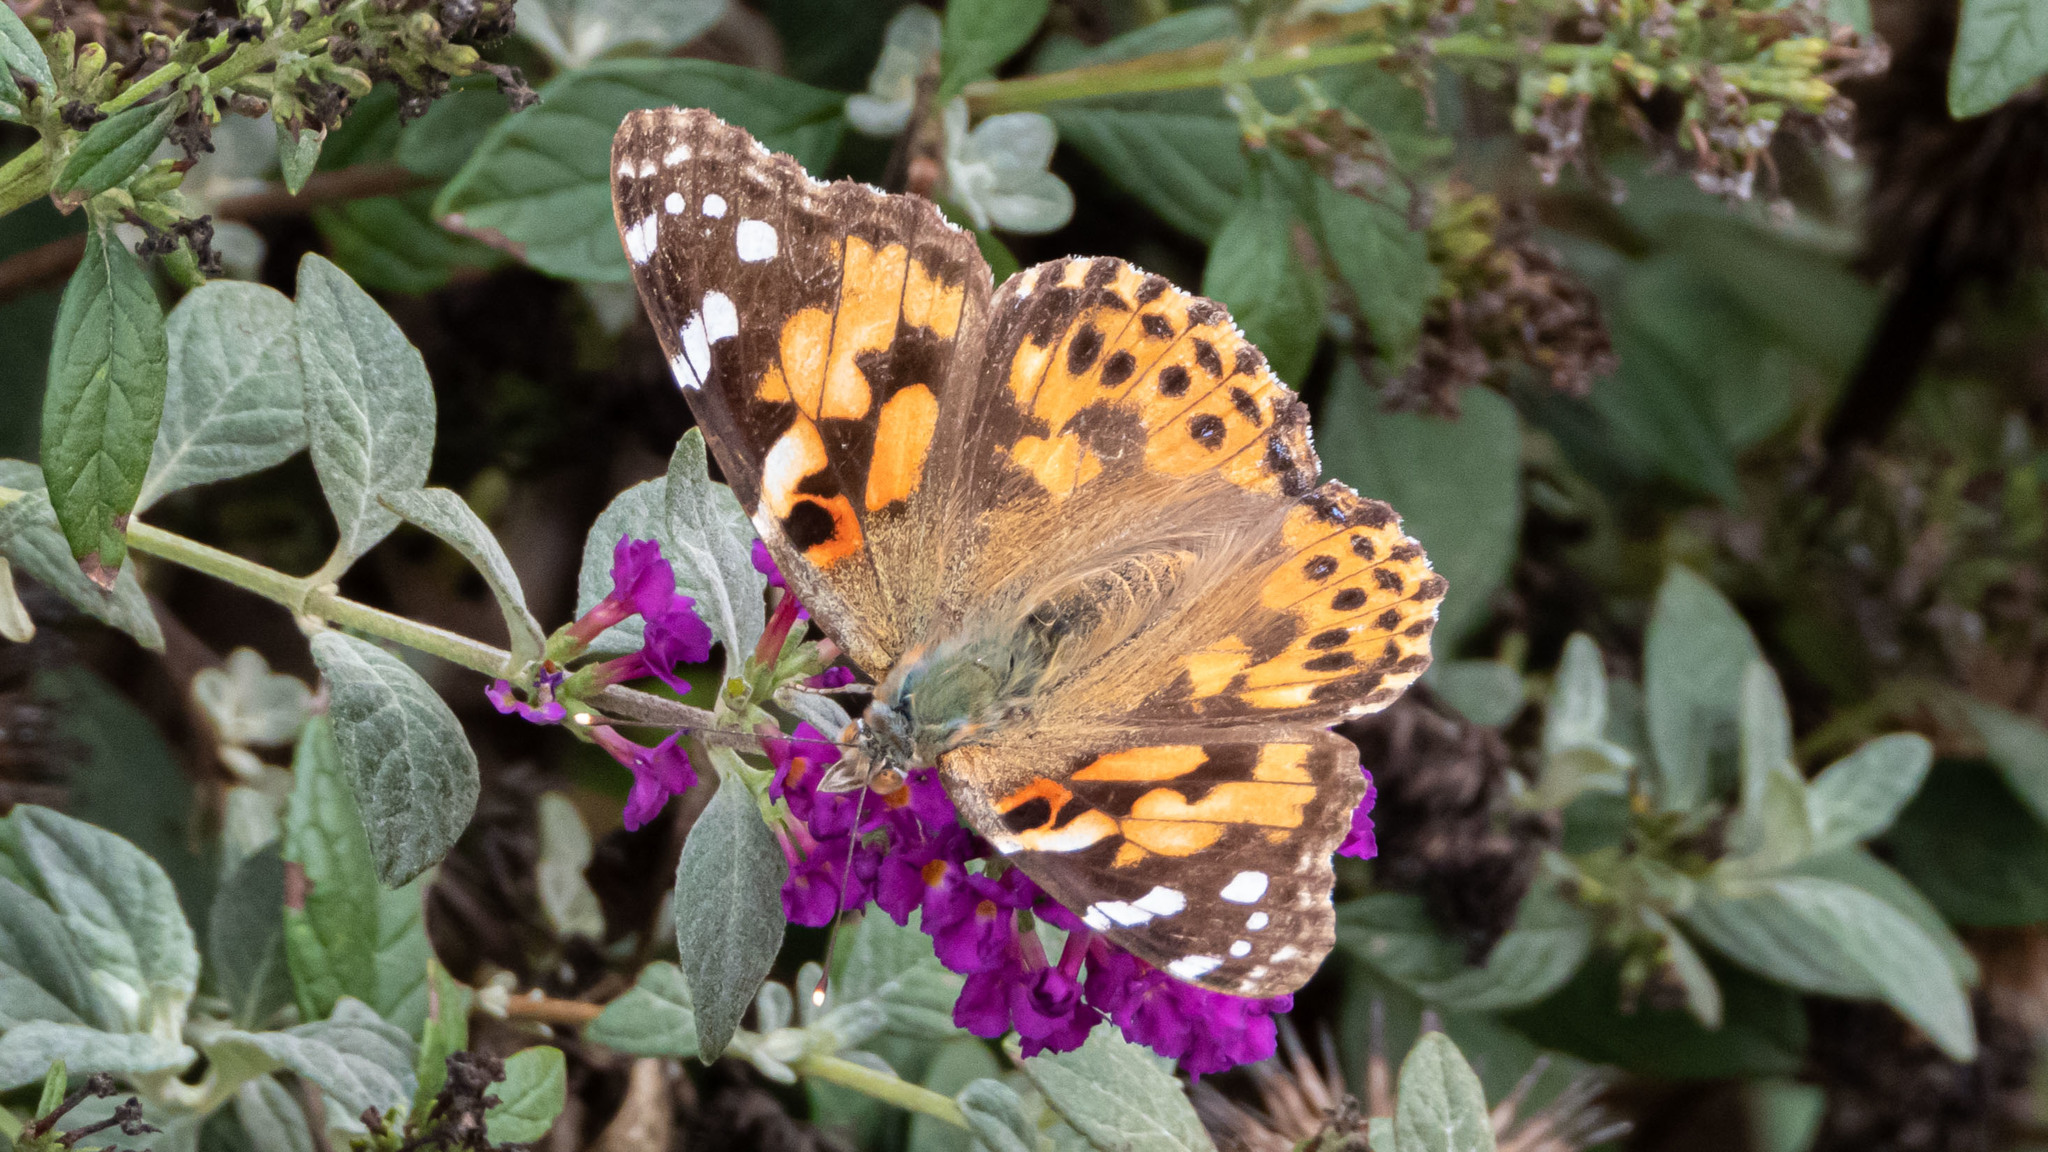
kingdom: Animalia
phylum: Arthropoda
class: Insecta
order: Lepidoptera
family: Nymphalidae
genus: Vanessa
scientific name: Vanessa cardui
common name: Painted lady
